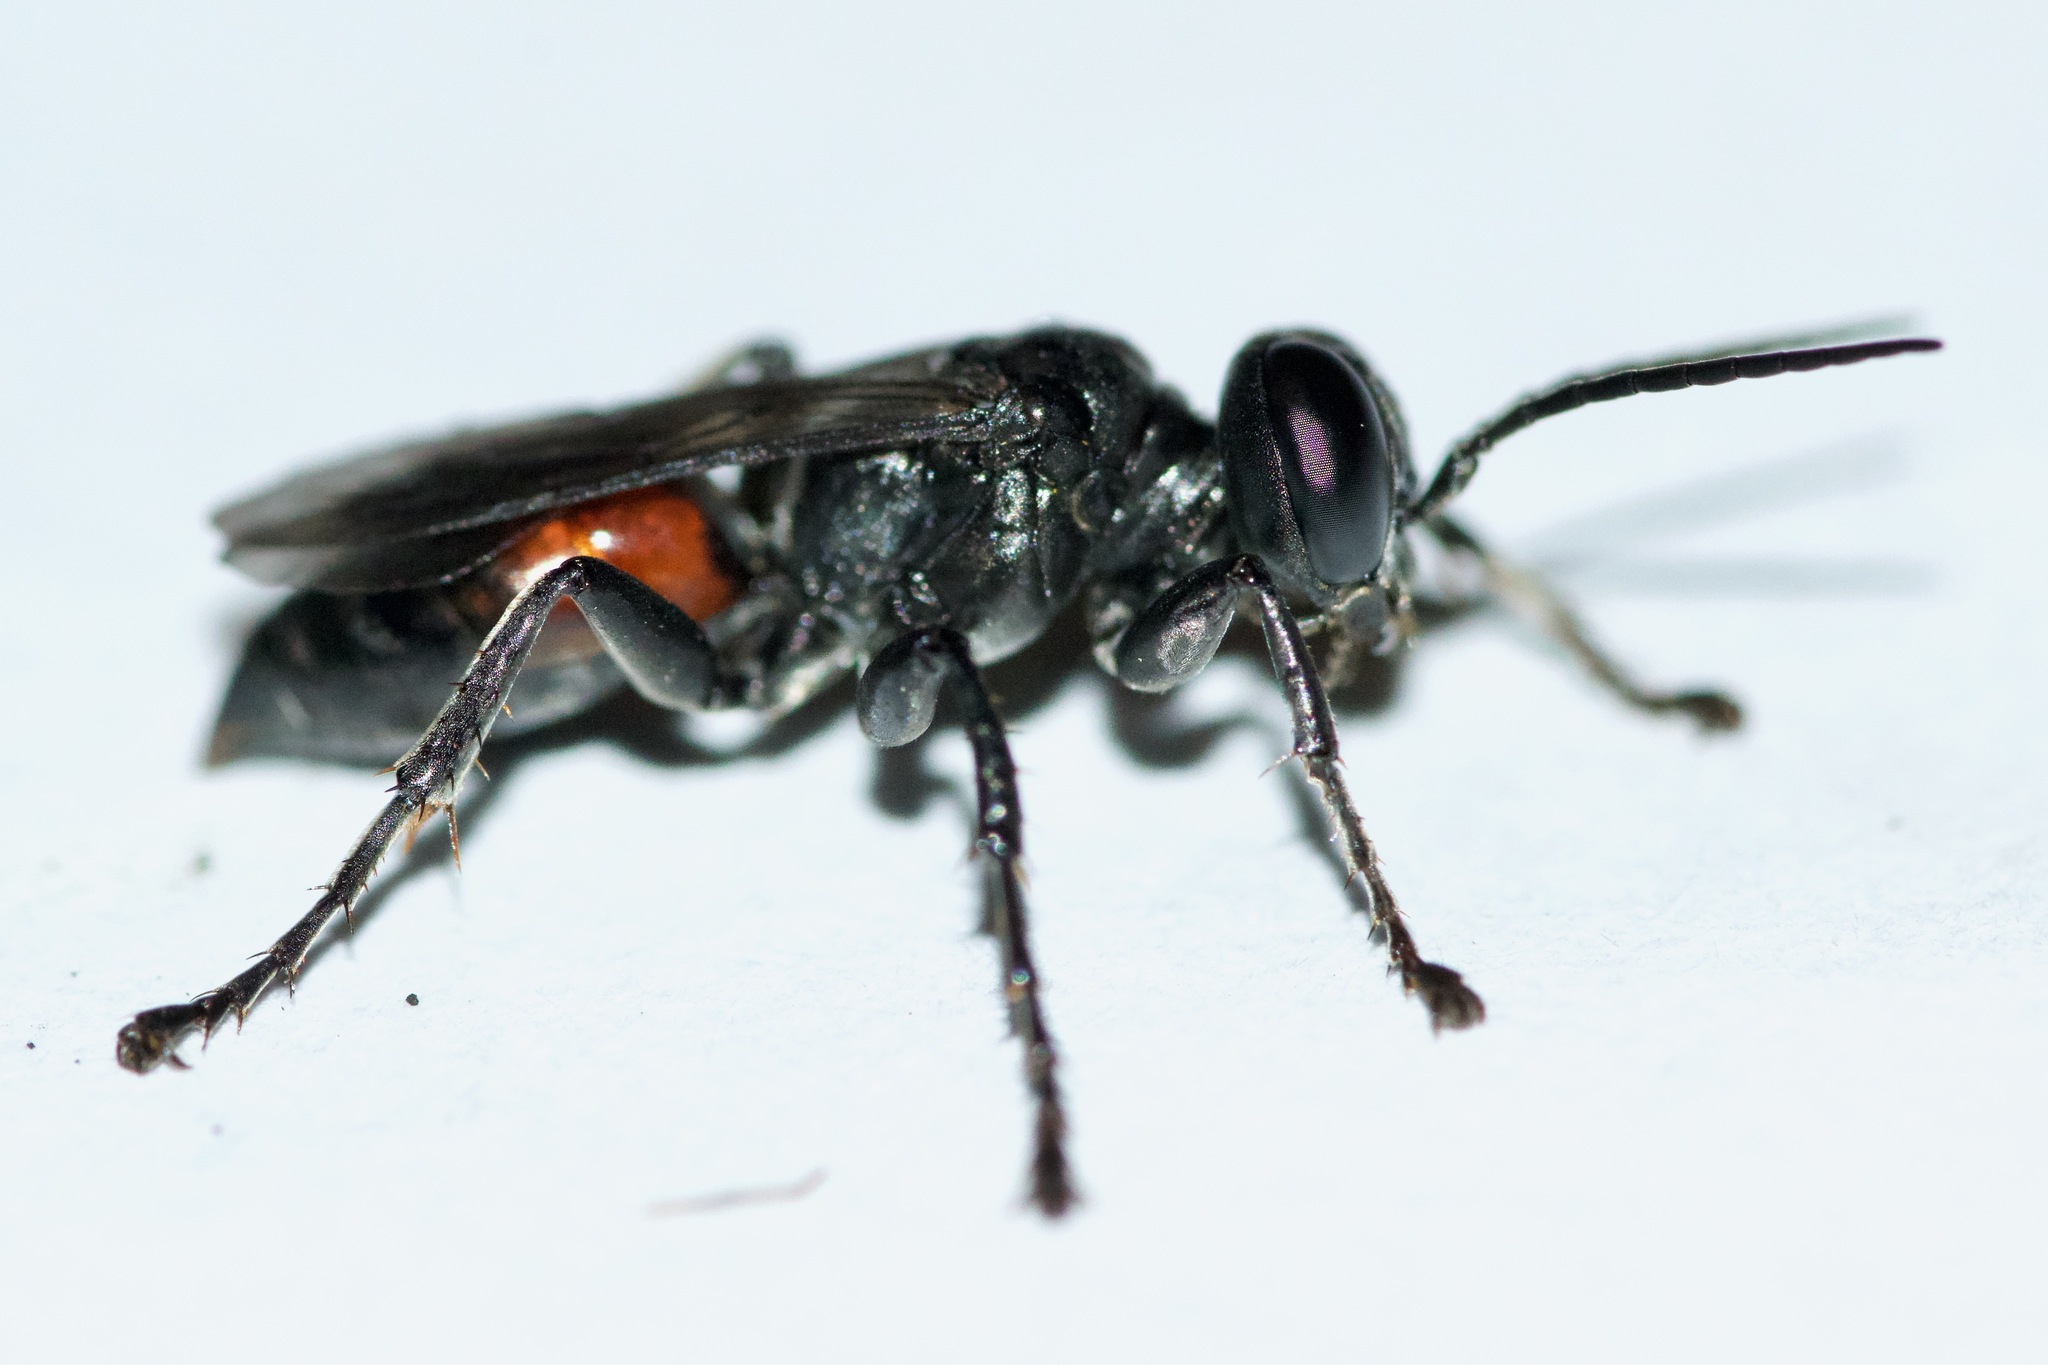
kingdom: Animalia
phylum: Arthropoda
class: Insecta
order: Hymenoptera
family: Crabronidae
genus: Tachysphex
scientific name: Tachysphex pompiliformis
